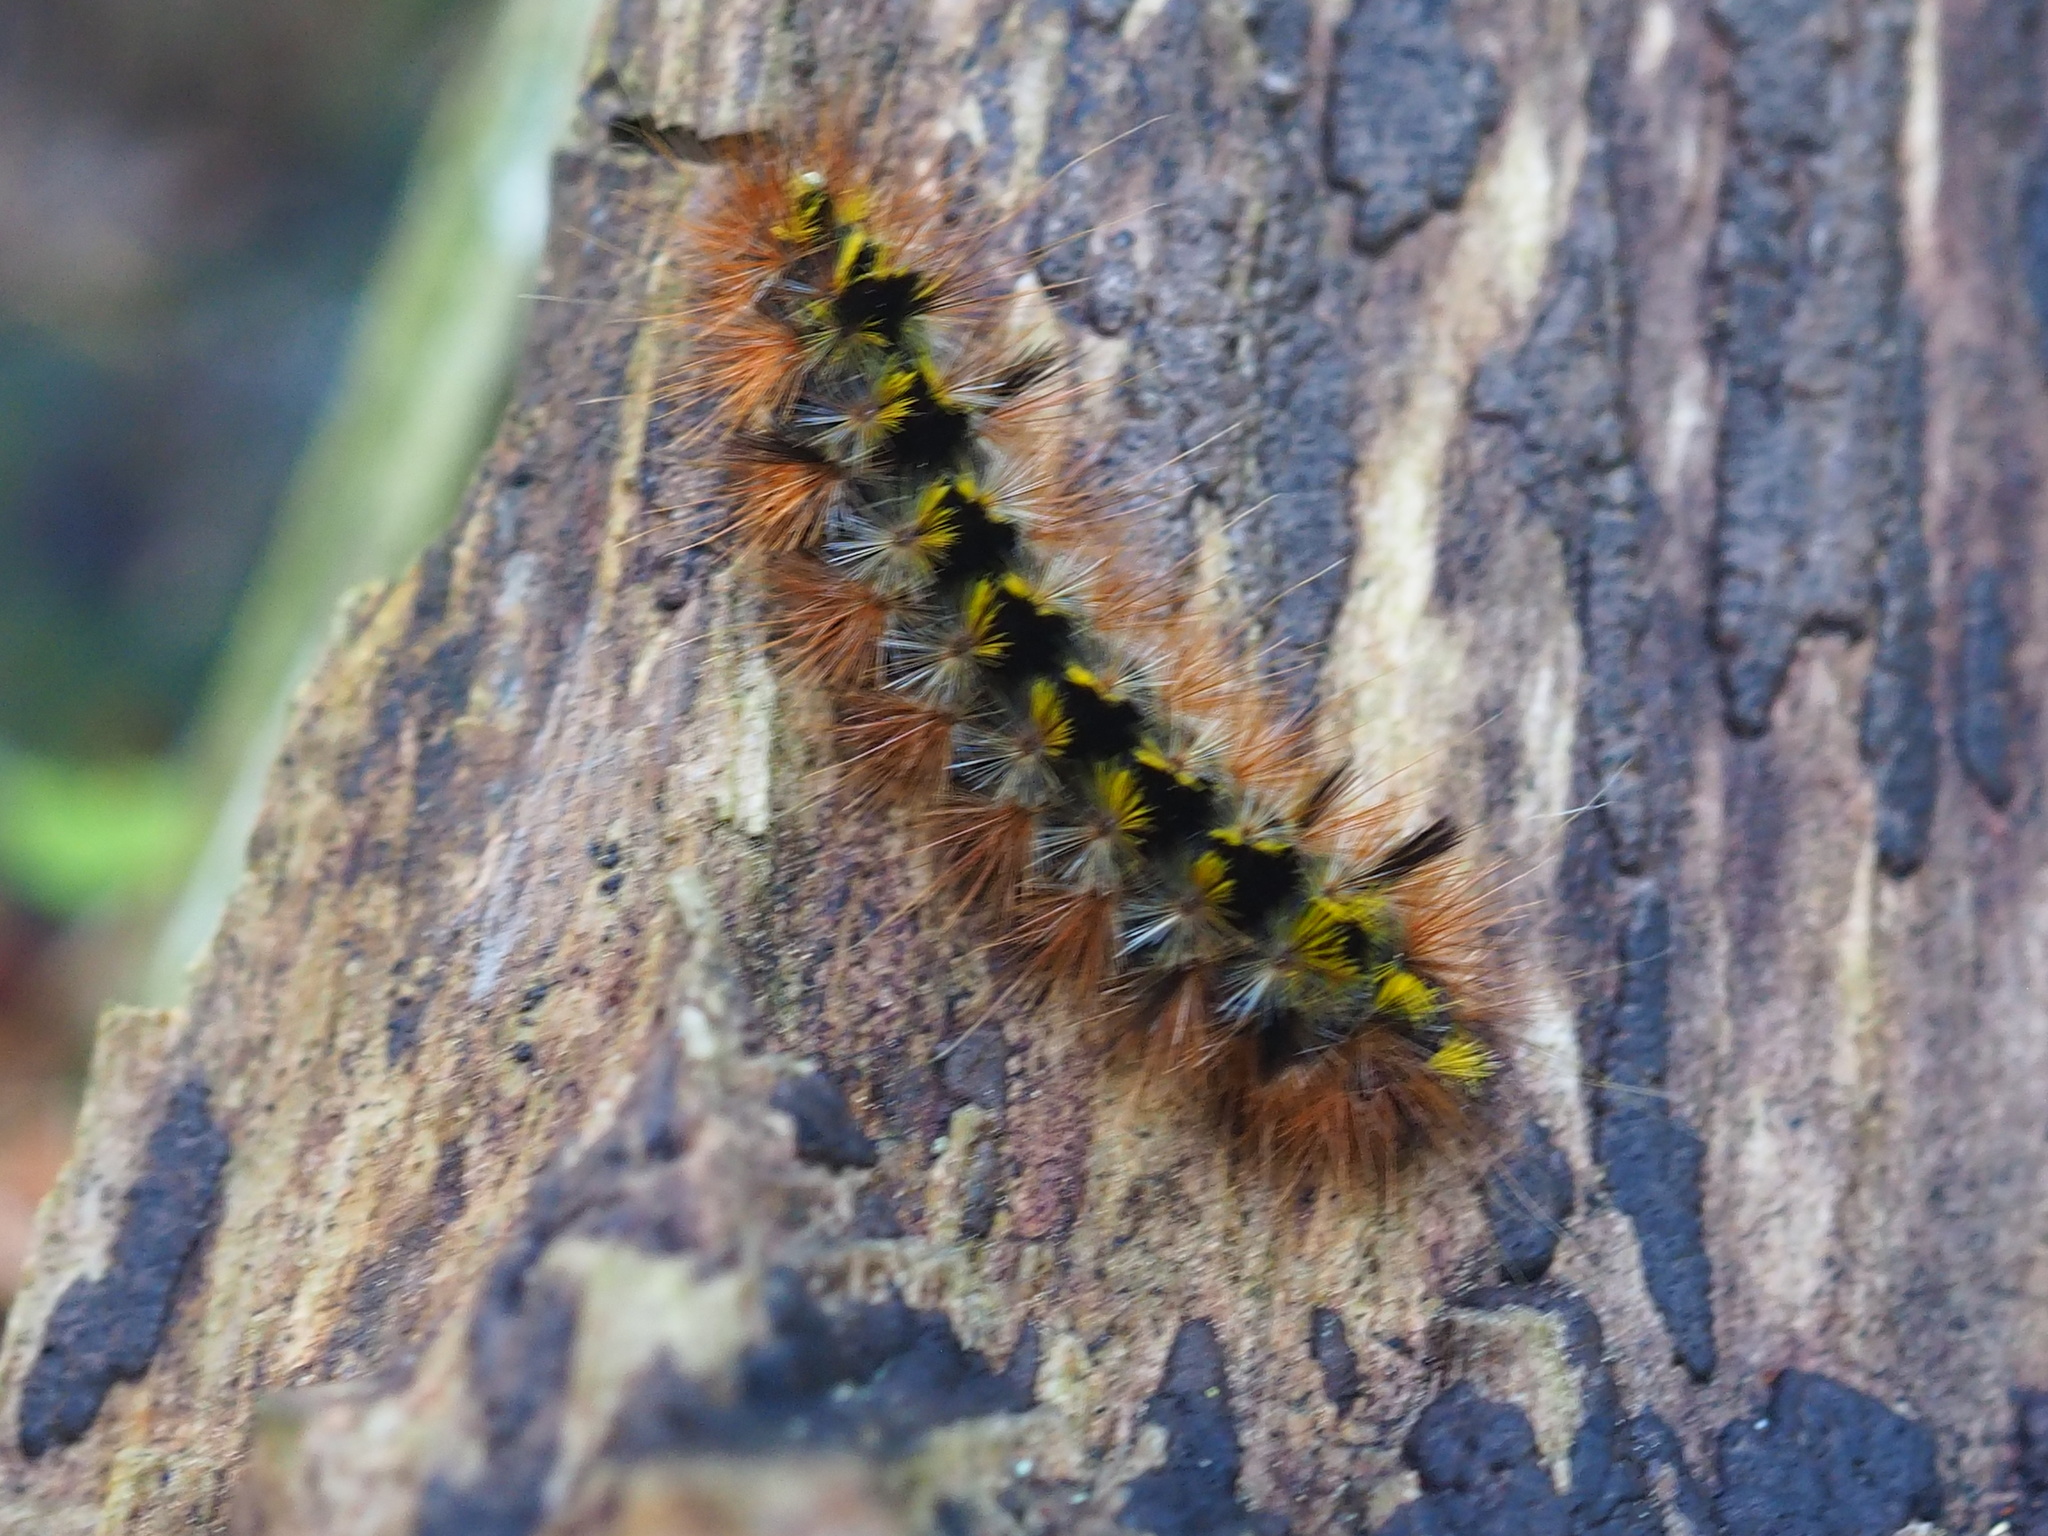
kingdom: Animalia
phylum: Arthropoda
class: Insecta
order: Lepidoptera
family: Erebidae
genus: Lophocampa
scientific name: Lophocampa argentata
